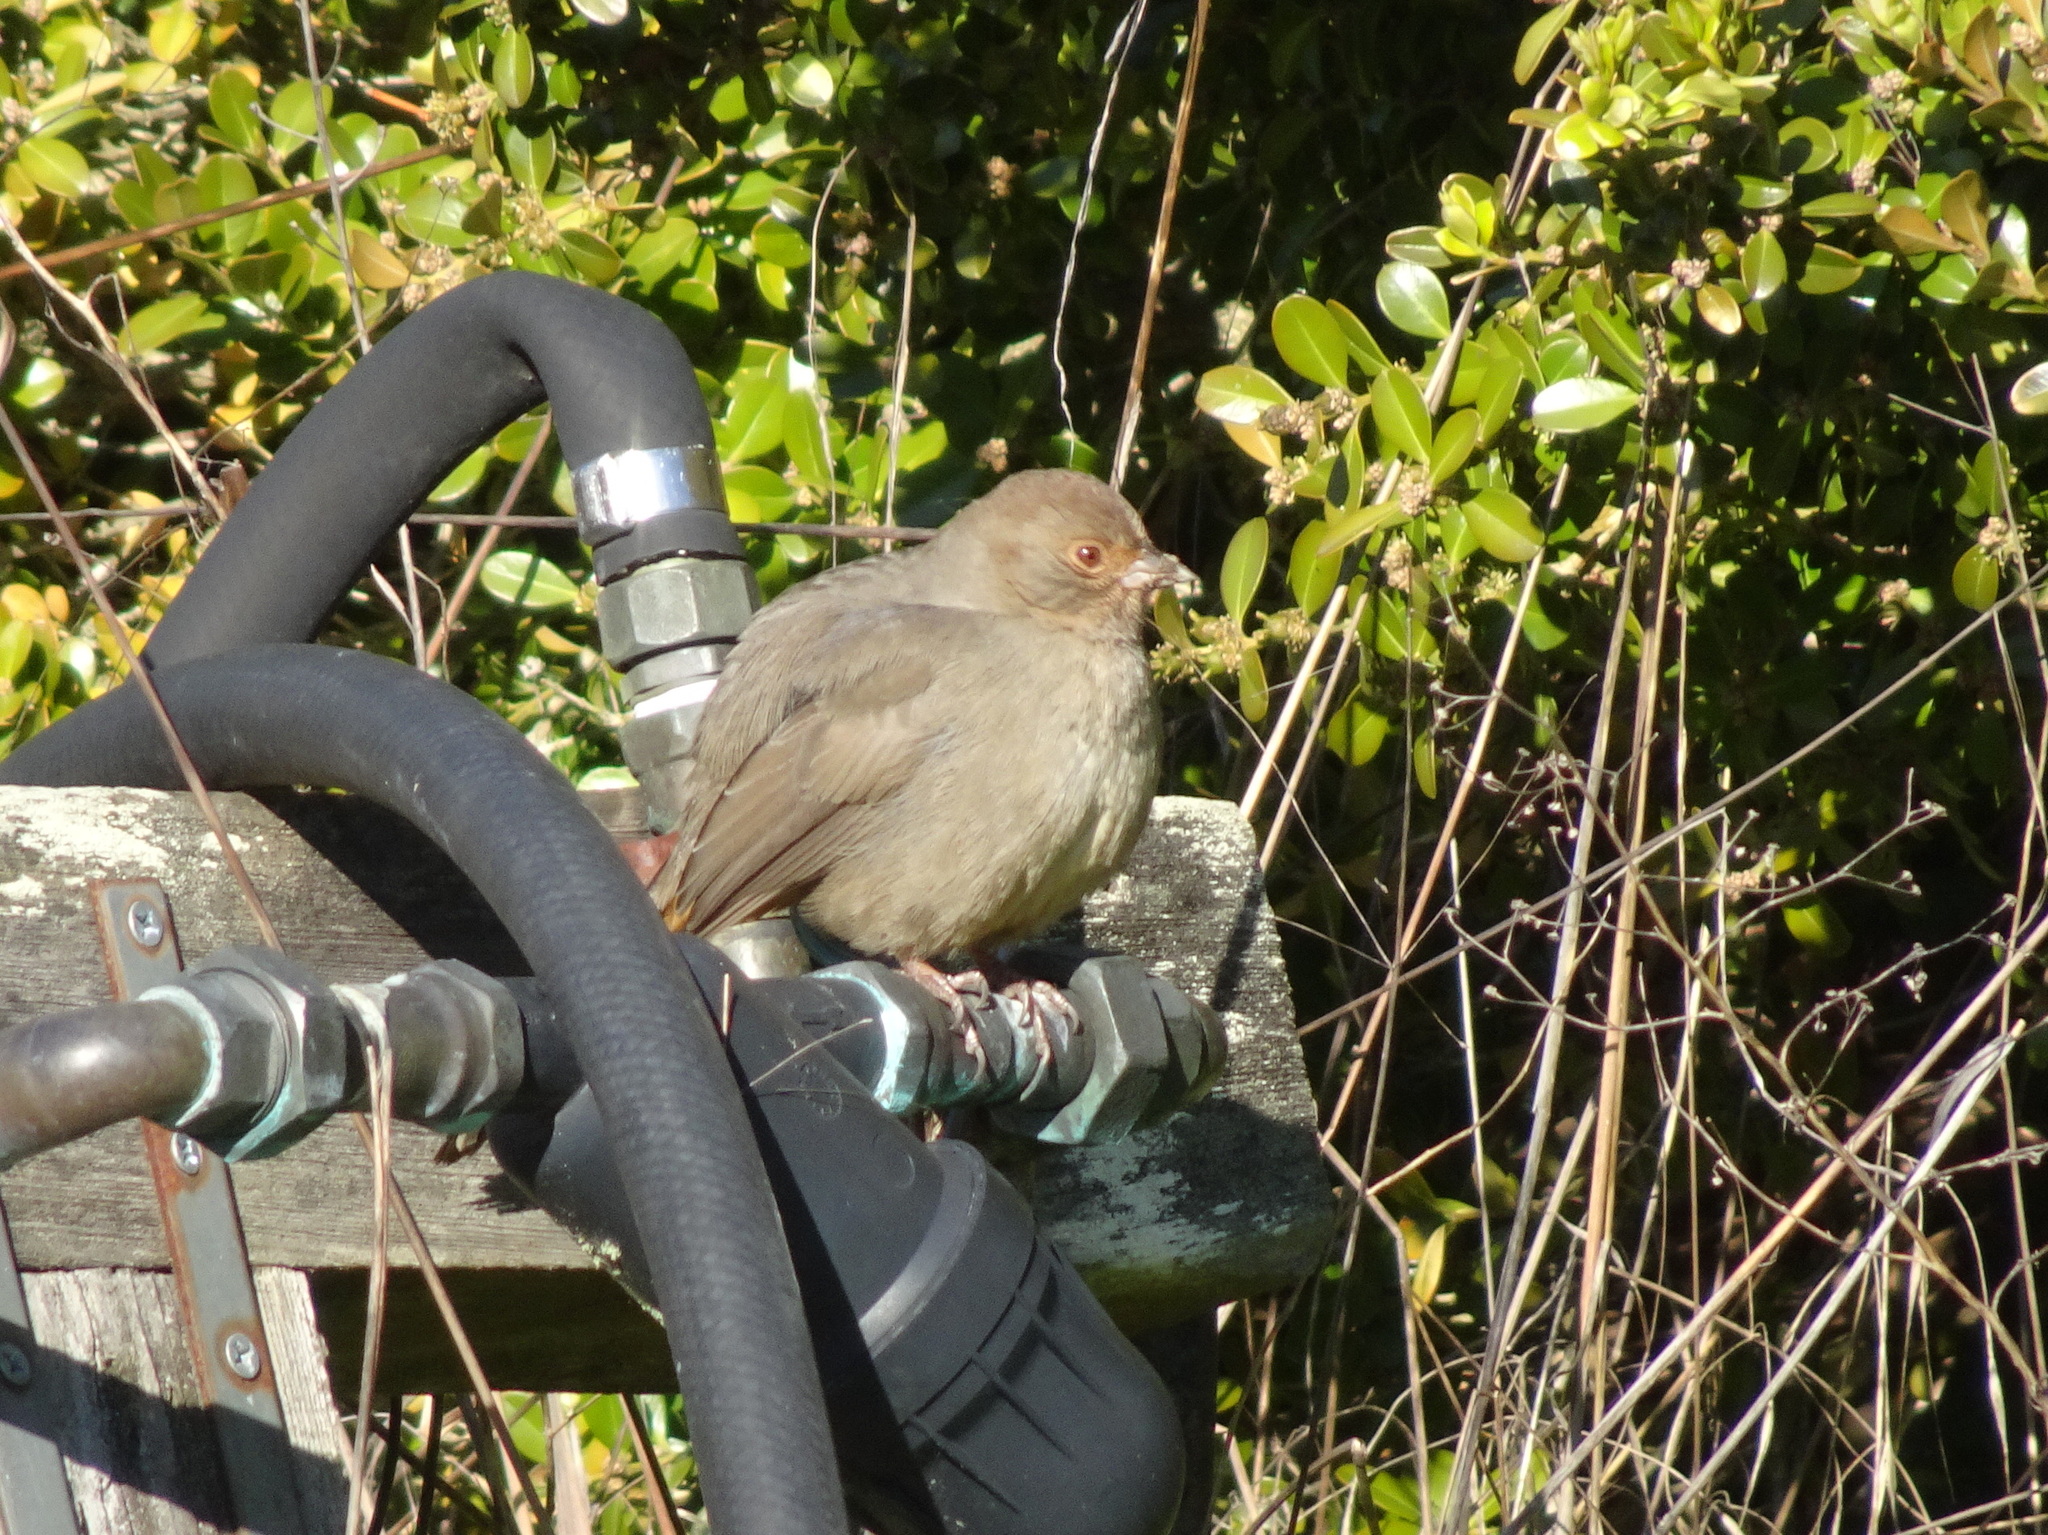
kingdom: Animalia
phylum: Chordata
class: Aves
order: Passeriformes
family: Passerellidae
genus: Melozone
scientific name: Melozone crissalis
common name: California towhee
